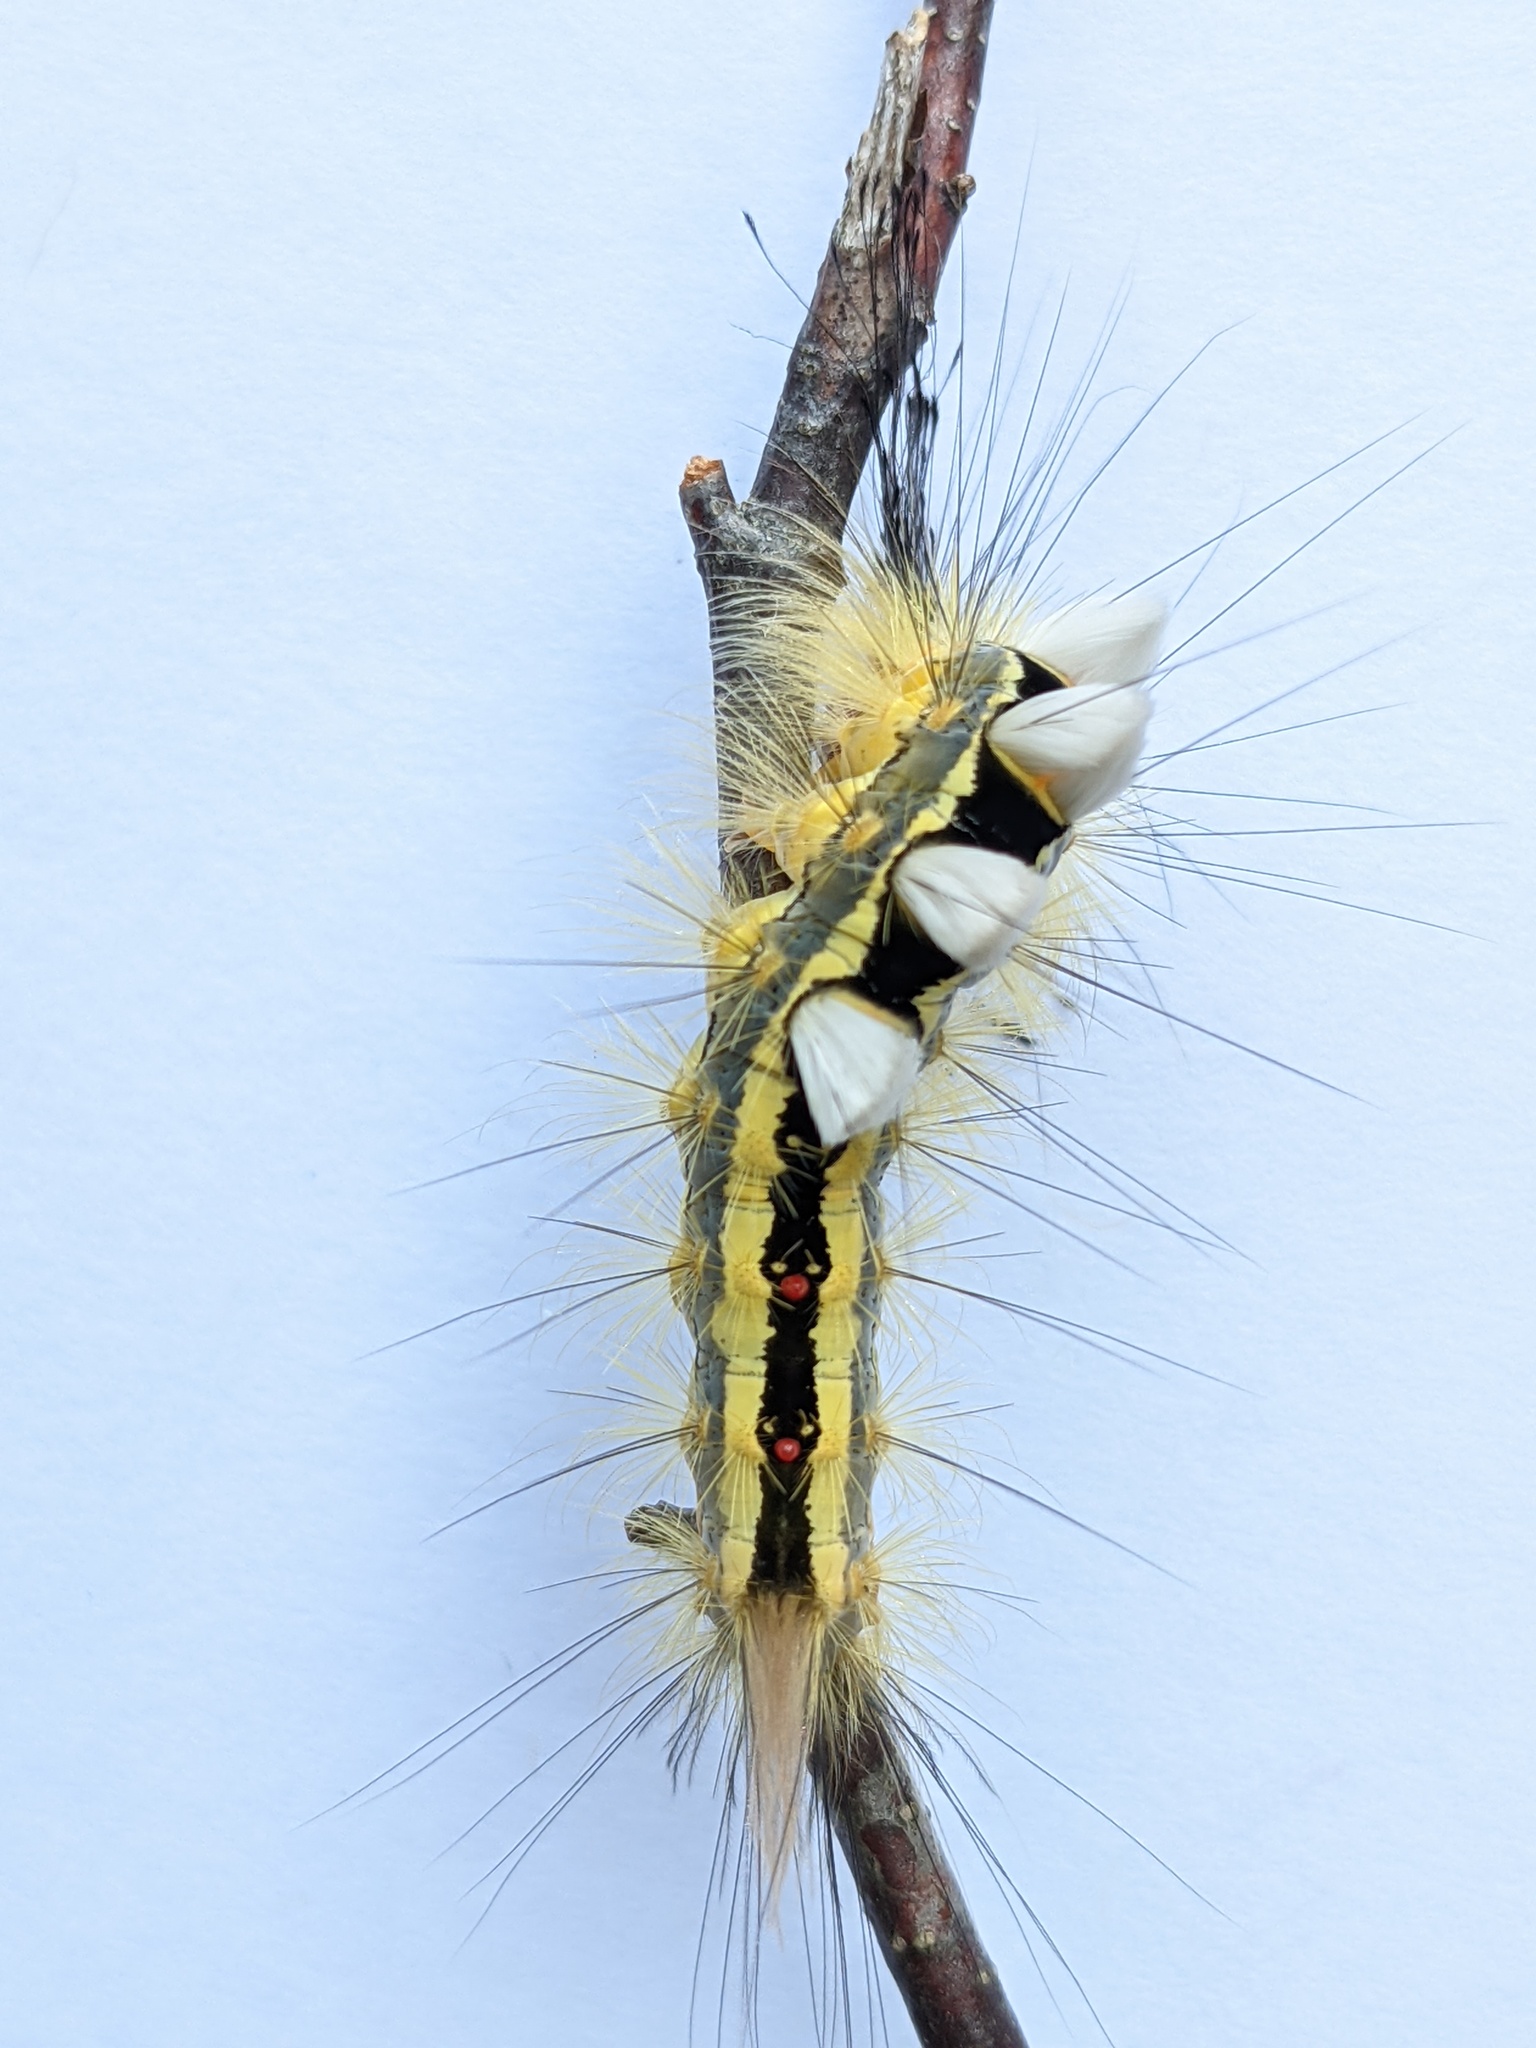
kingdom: Animalia
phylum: Arthropoda
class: Insecta
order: Lepidoptera
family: Erebidae
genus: Orgyia
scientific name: Orgyia leucostigma
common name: White-marked tussock moth
